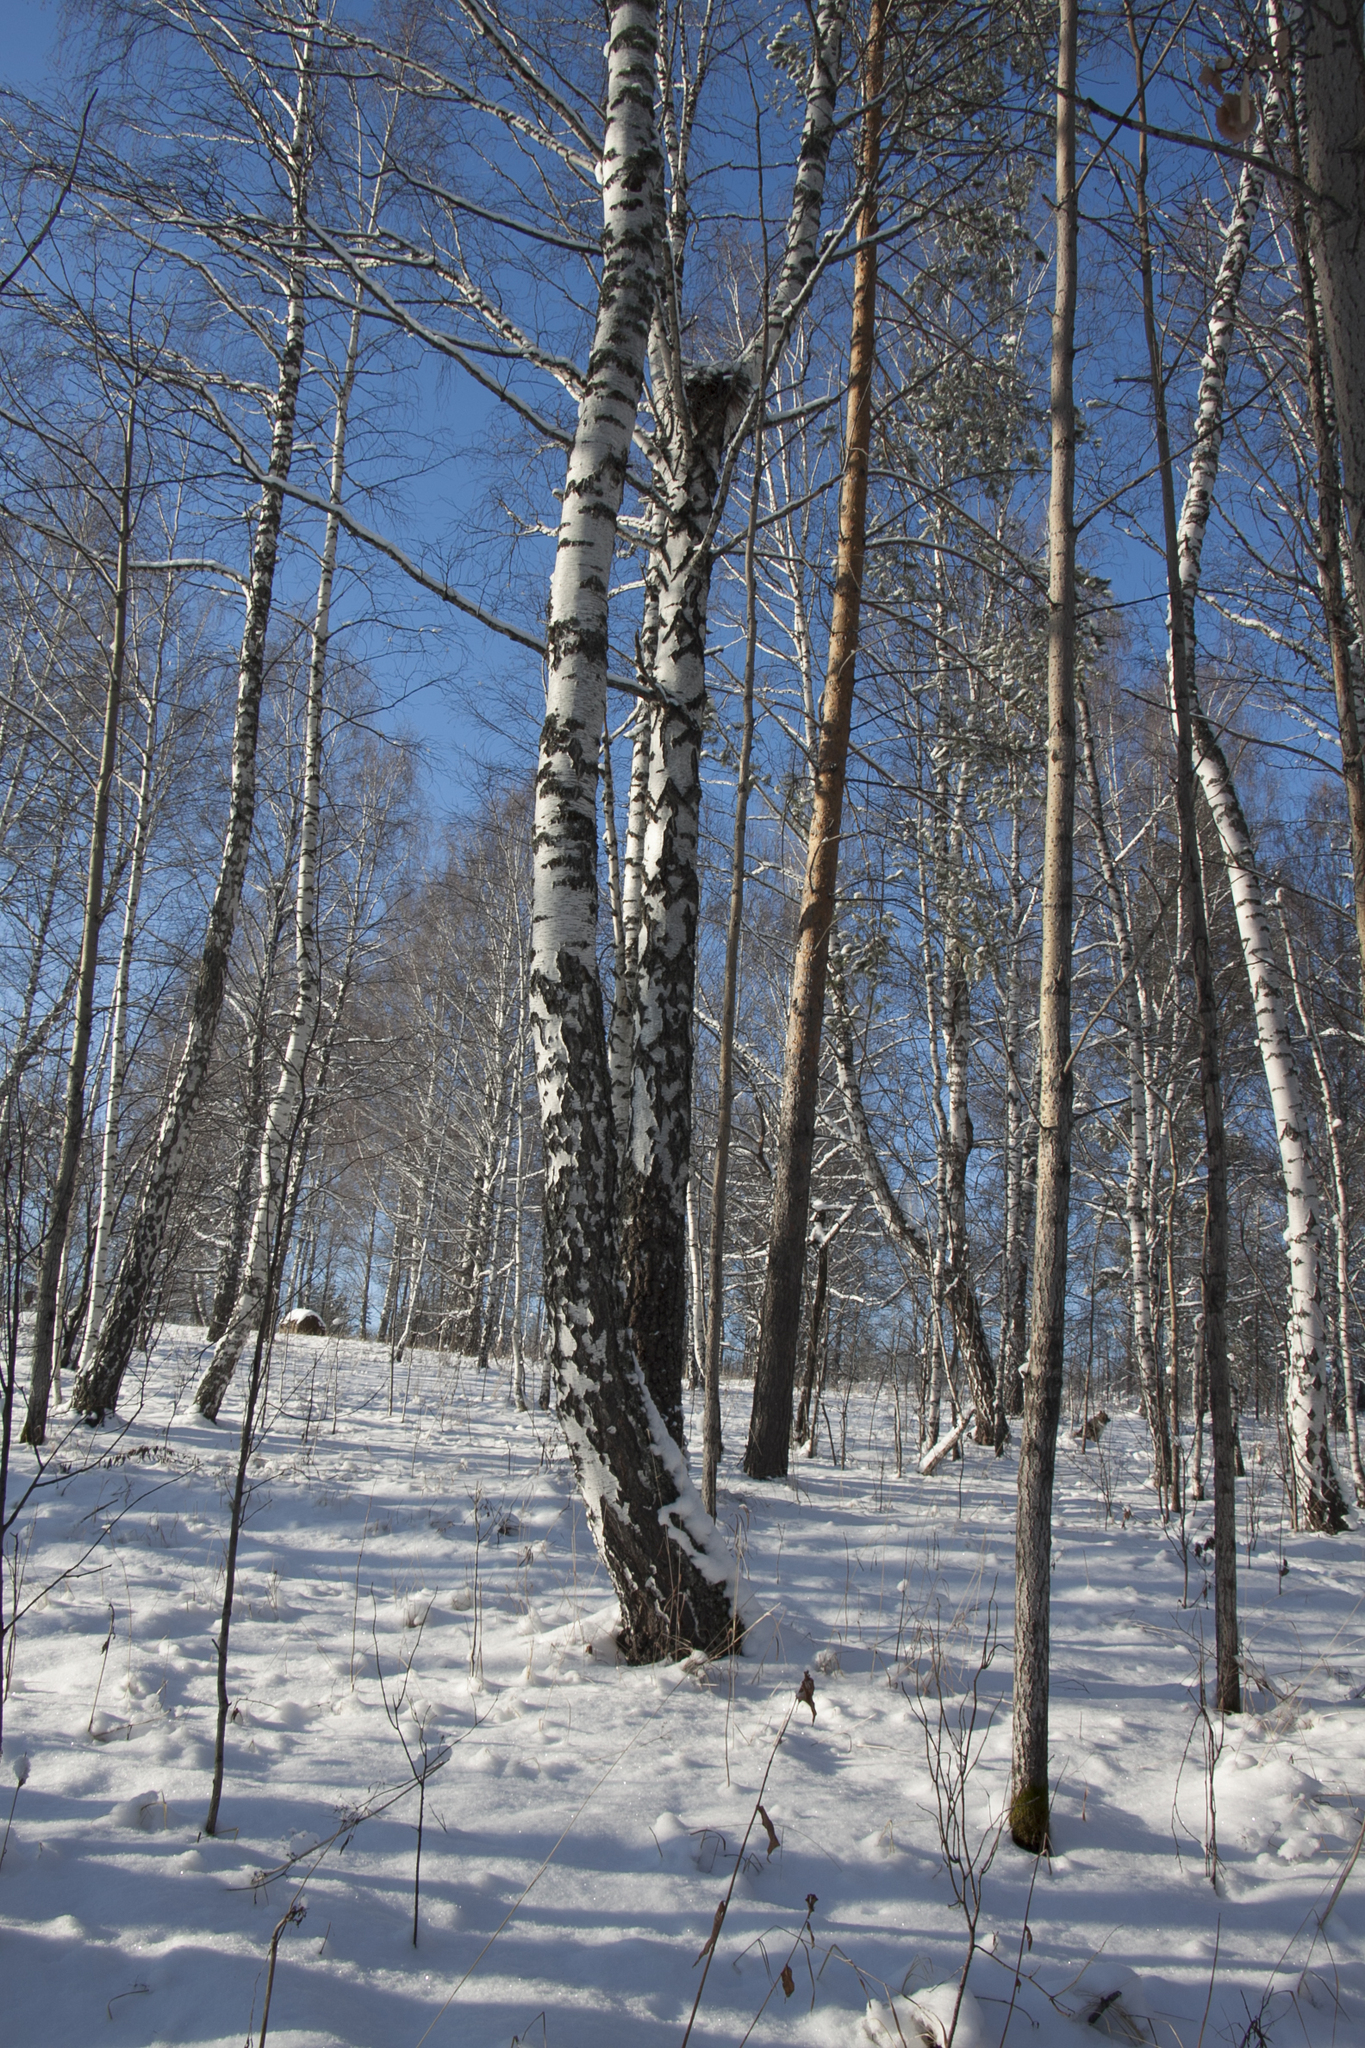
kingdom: Plantae
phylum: Tracheophyta
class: Magnoliopsida
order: Fagales
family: Betulaceae
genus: Betula
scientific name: Betula pendula
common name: Silver birch
